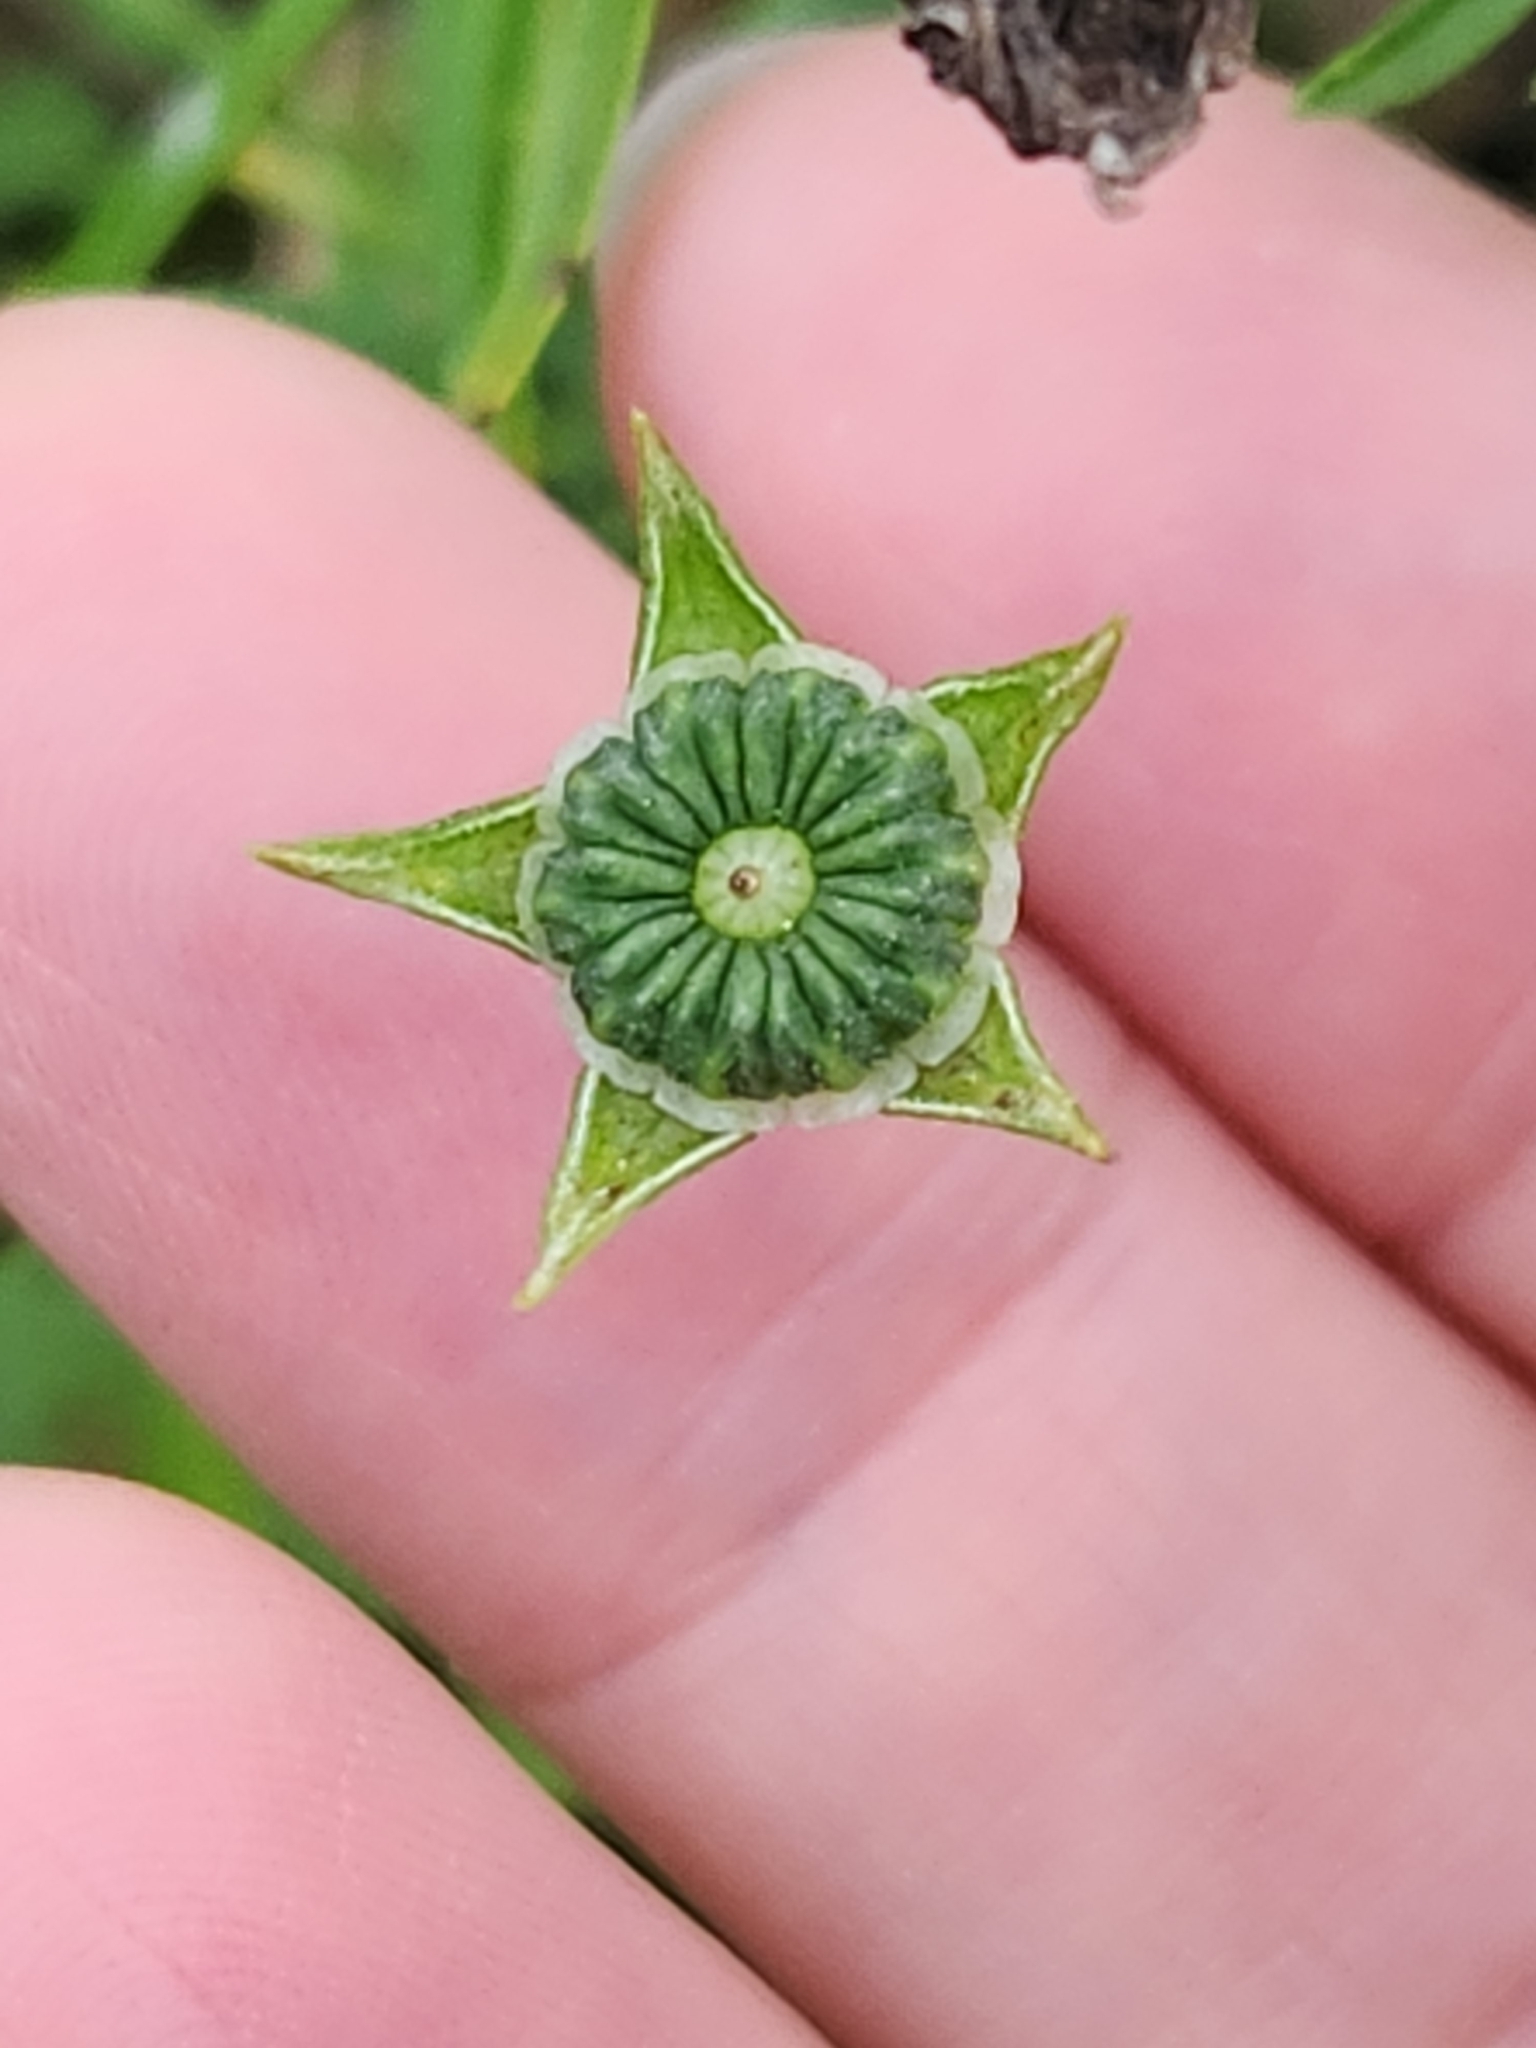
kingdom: Plantae
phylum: Tracheophyta
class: Magnoliopsida
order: Malvales
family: Malvaceae
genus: Callirhoe
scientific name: Callirhoe leiocarpa
